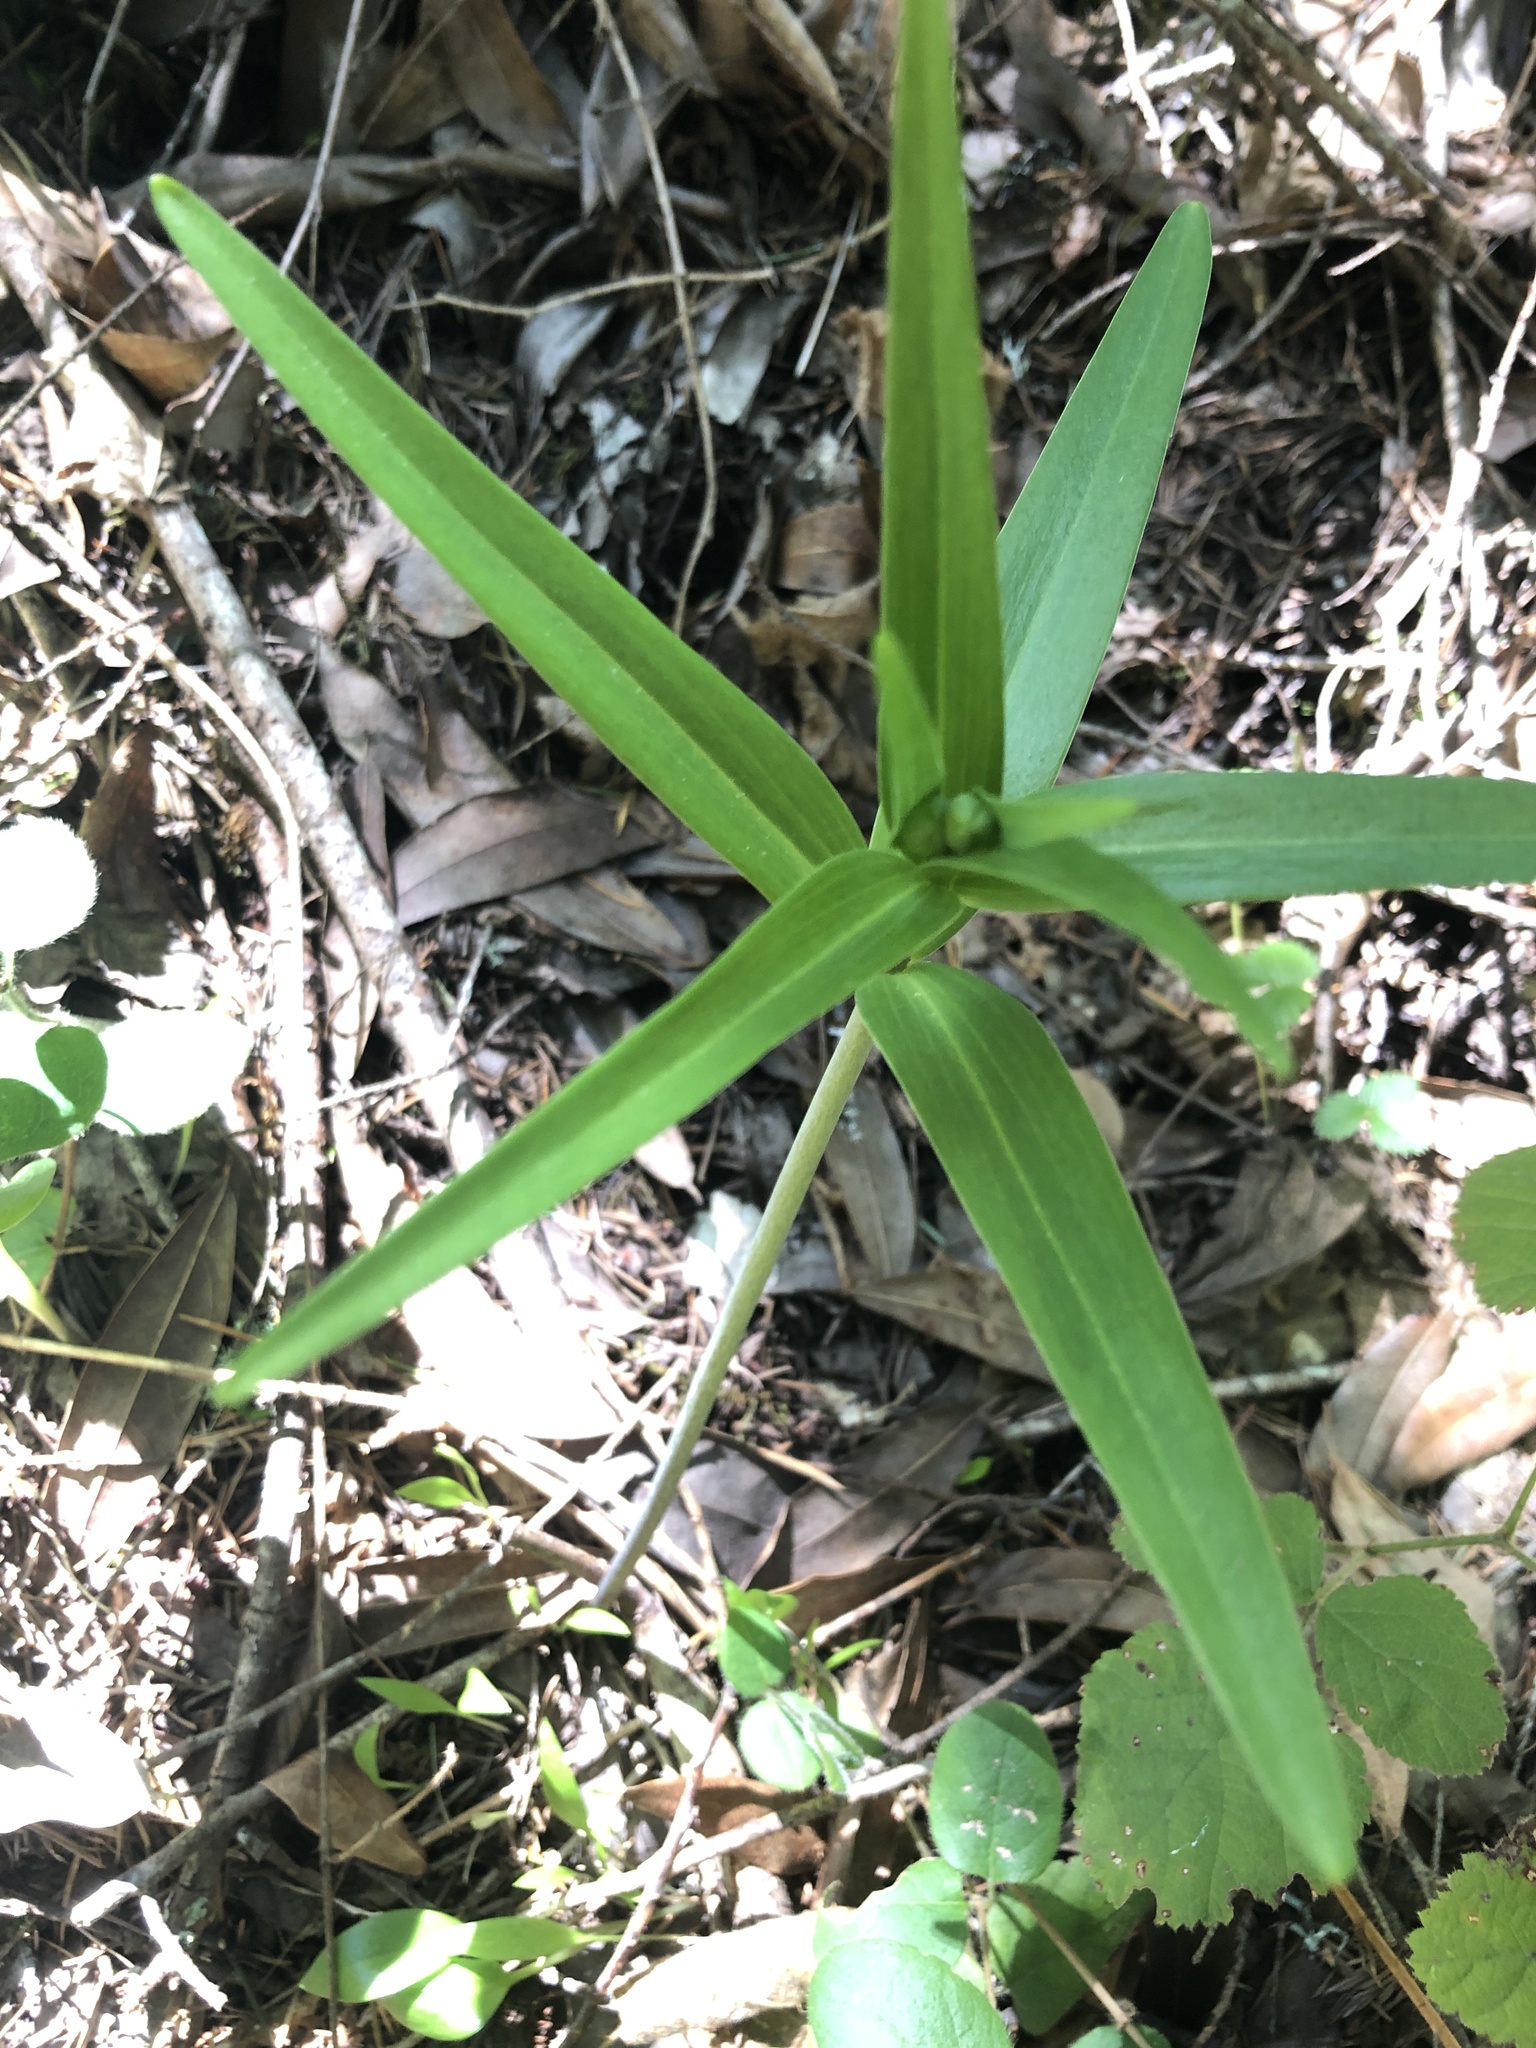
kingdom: Plantae
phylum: Tracheophyta
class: Liliopsida
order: Liliales
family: Liliaceae
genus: Fritillaria
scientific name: Fritillaria affinis
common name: Ojai fritillary
